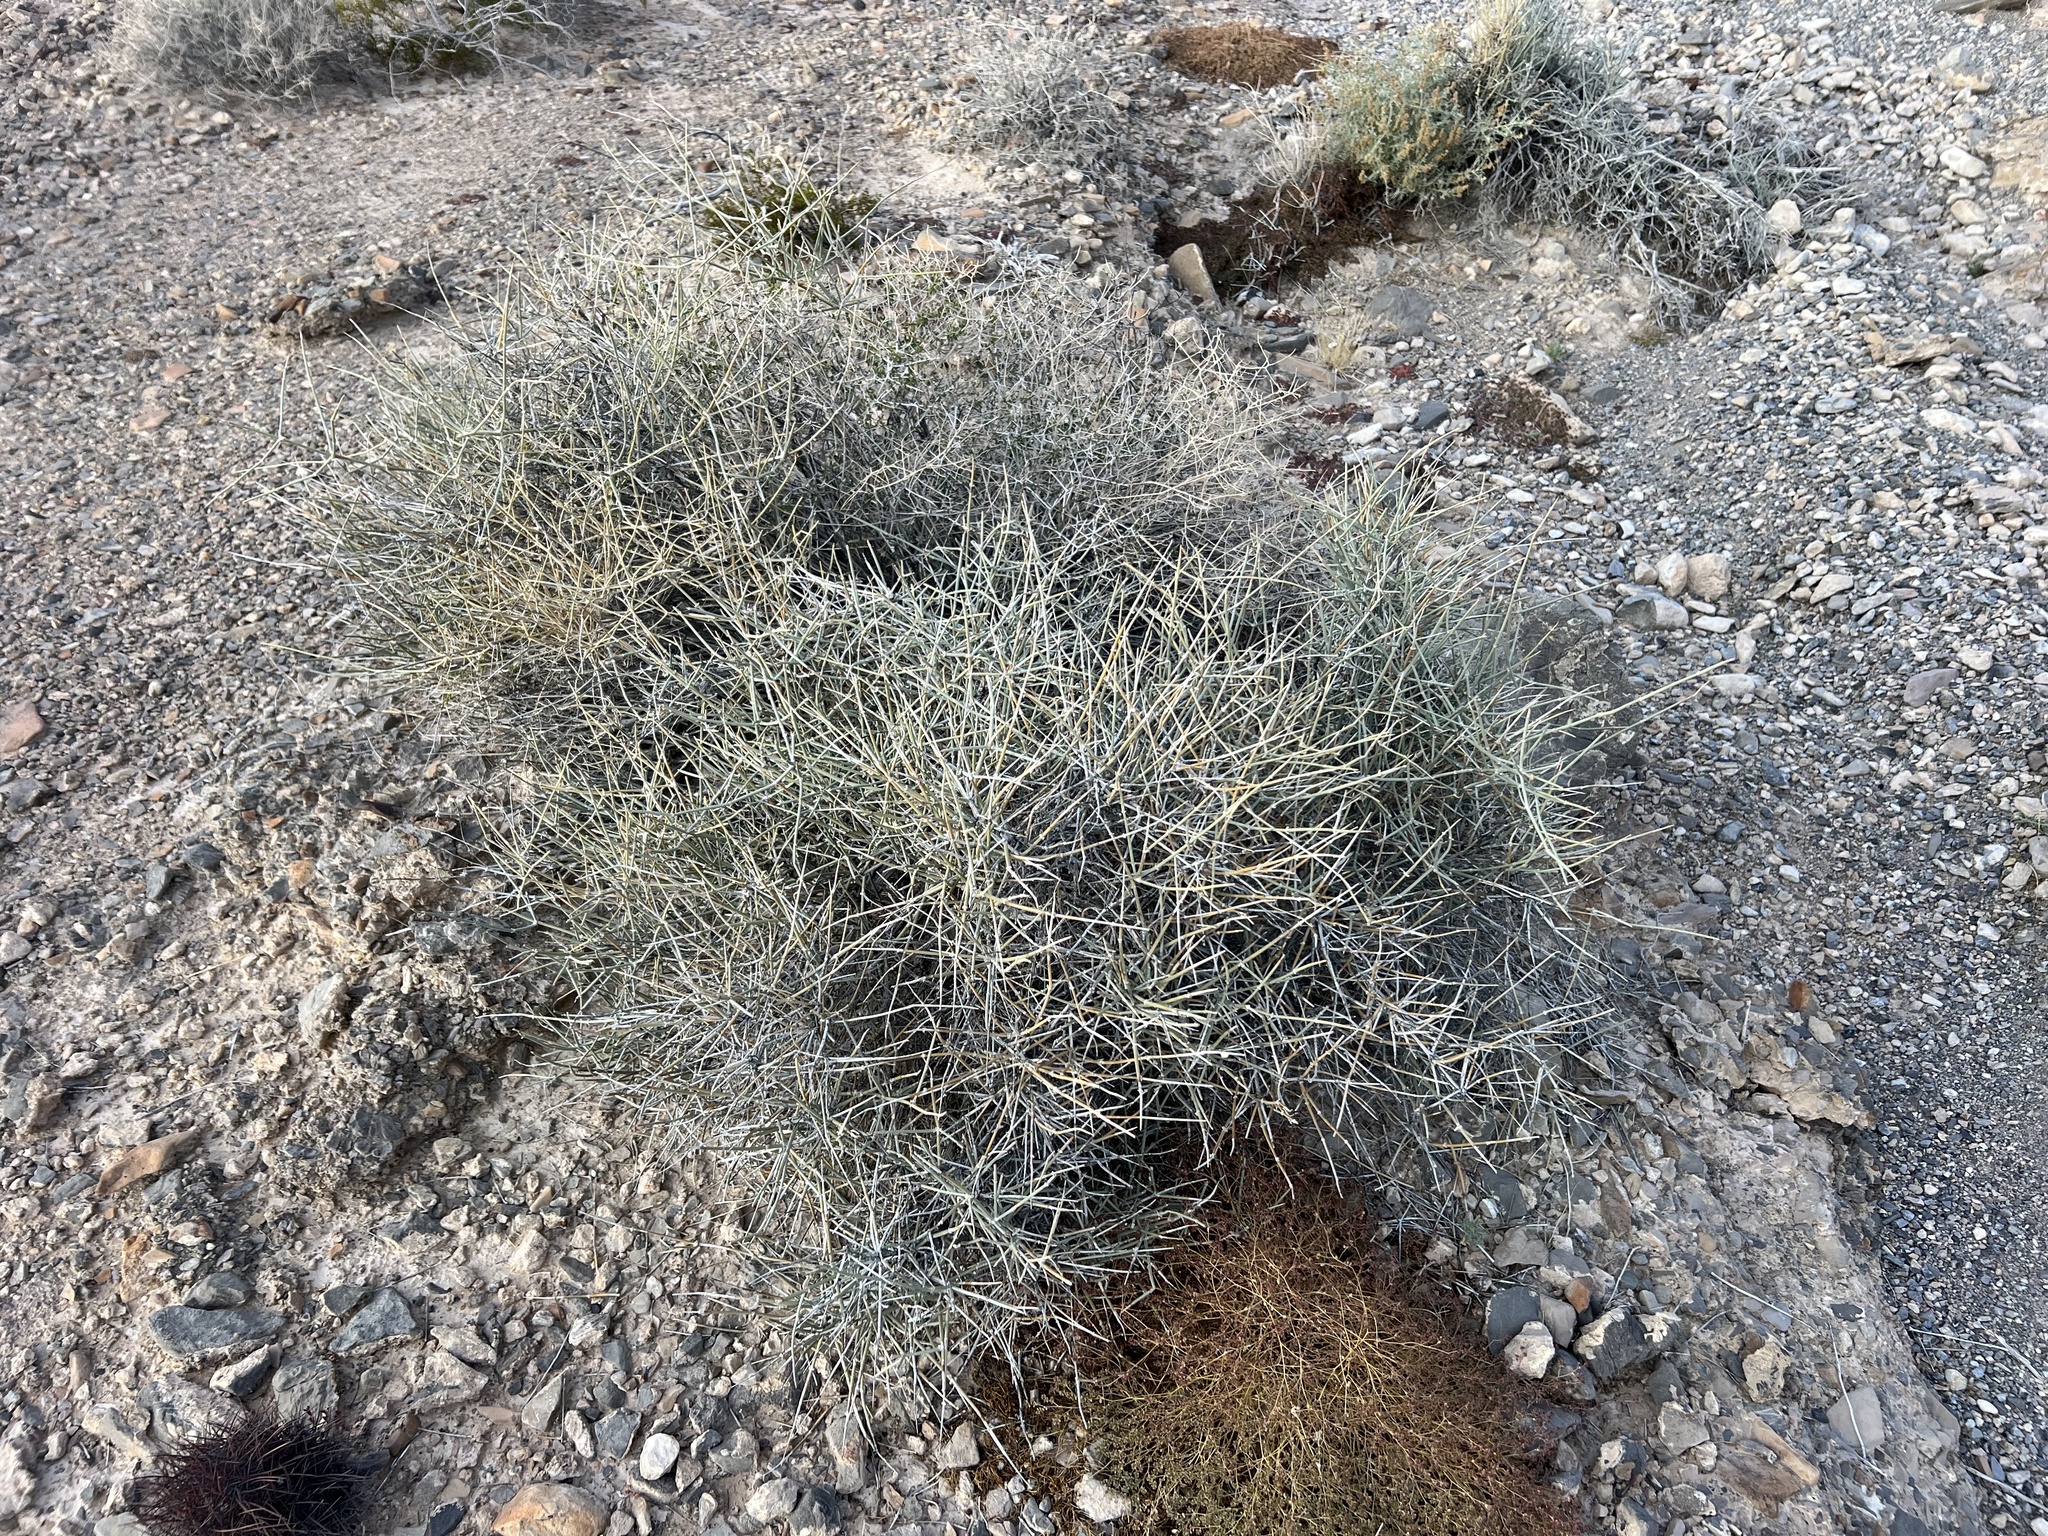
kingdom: Plantae
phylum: Tracheophyta
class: Gnetopsida
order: Ephedrales
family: Ephedraceae
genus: Ephedra
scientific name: Ephedra nevadensis
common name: Gray ephedra
